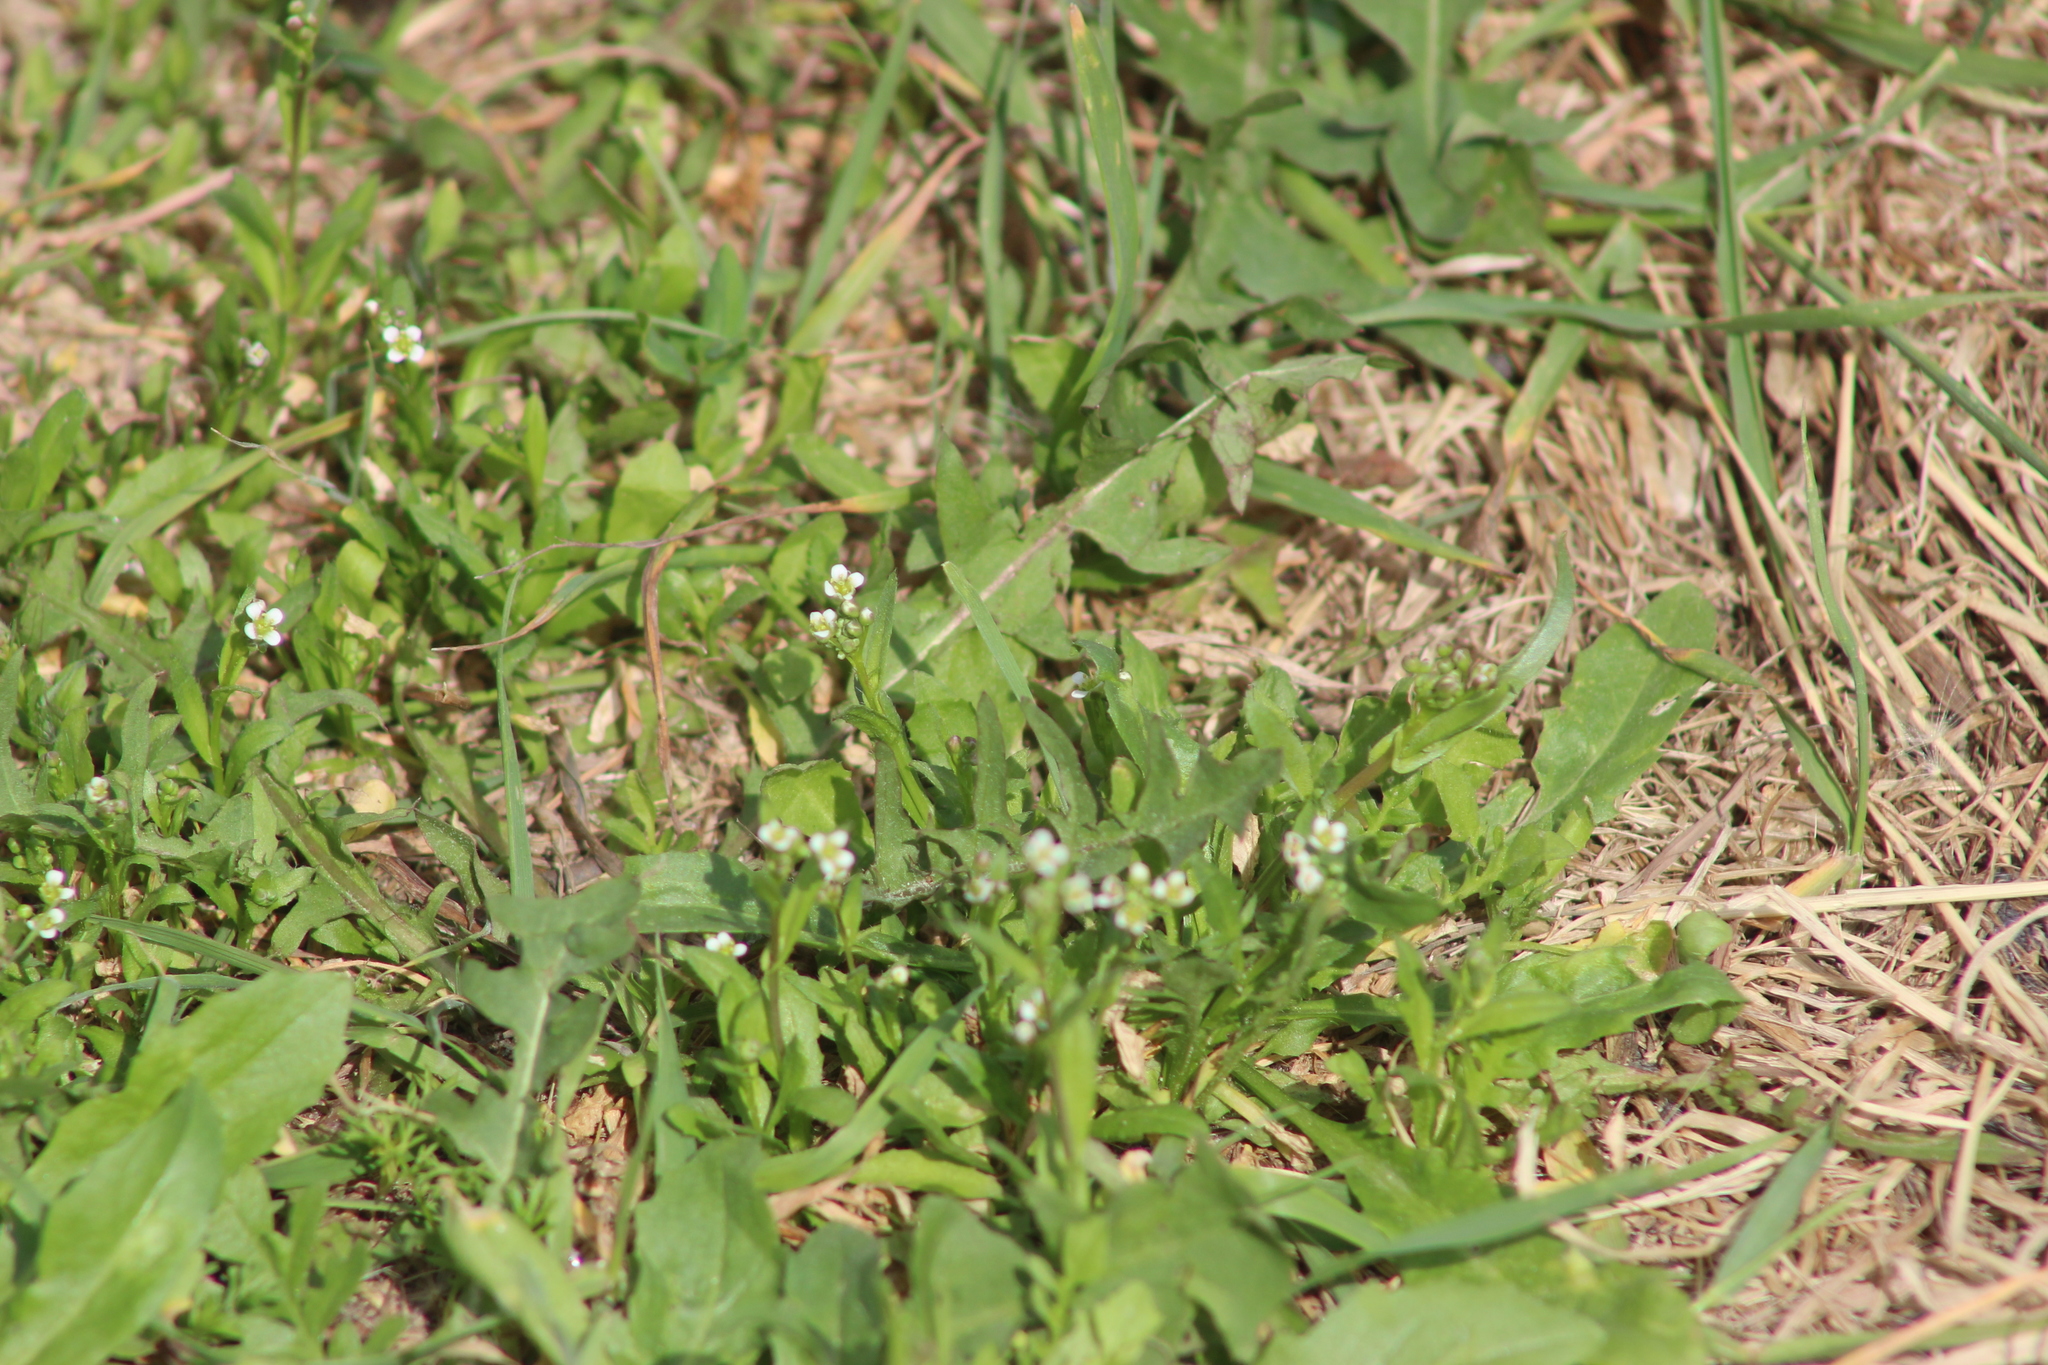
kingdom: Plantae
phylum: Tracheophyta
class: Magnoliopsida
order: Brassicales
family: Brassicaceae
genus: Capsella
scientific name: Capsella bursa-pastoris
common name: Shepherd's purse
